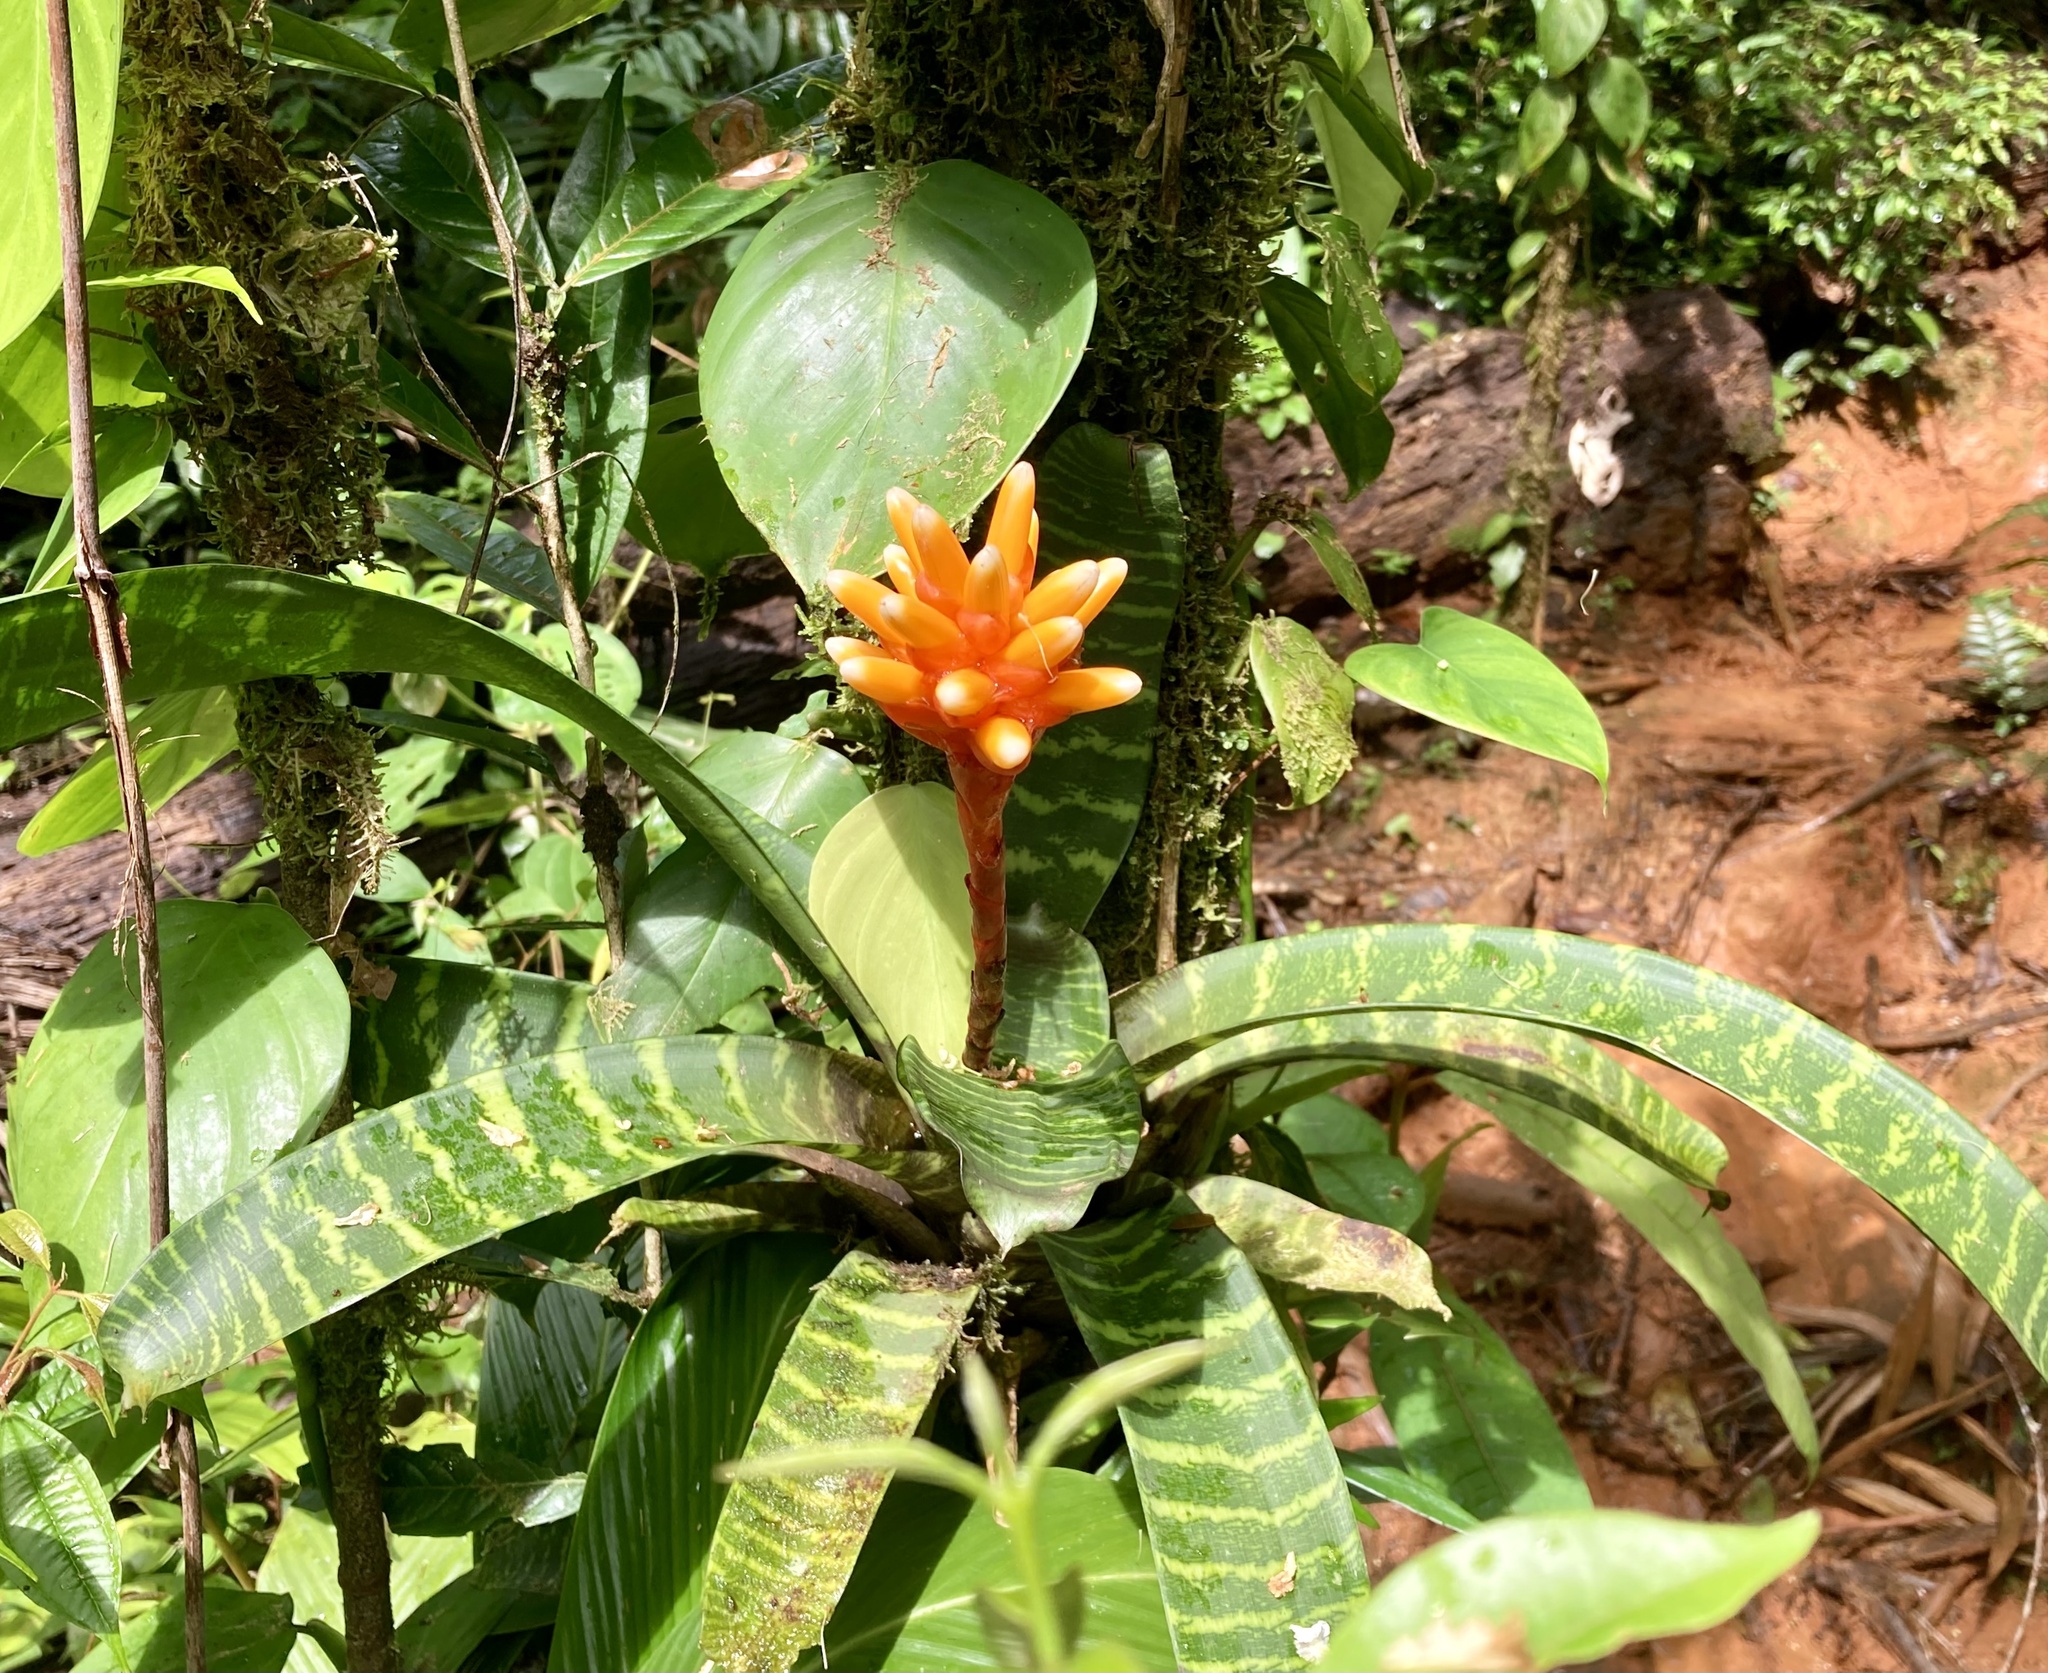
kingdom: Plantae
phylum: Tracheophyta
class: Liliopsida
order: Poales
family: Bromeliaceae
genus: Guzmania
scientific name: Guzmania musaica
